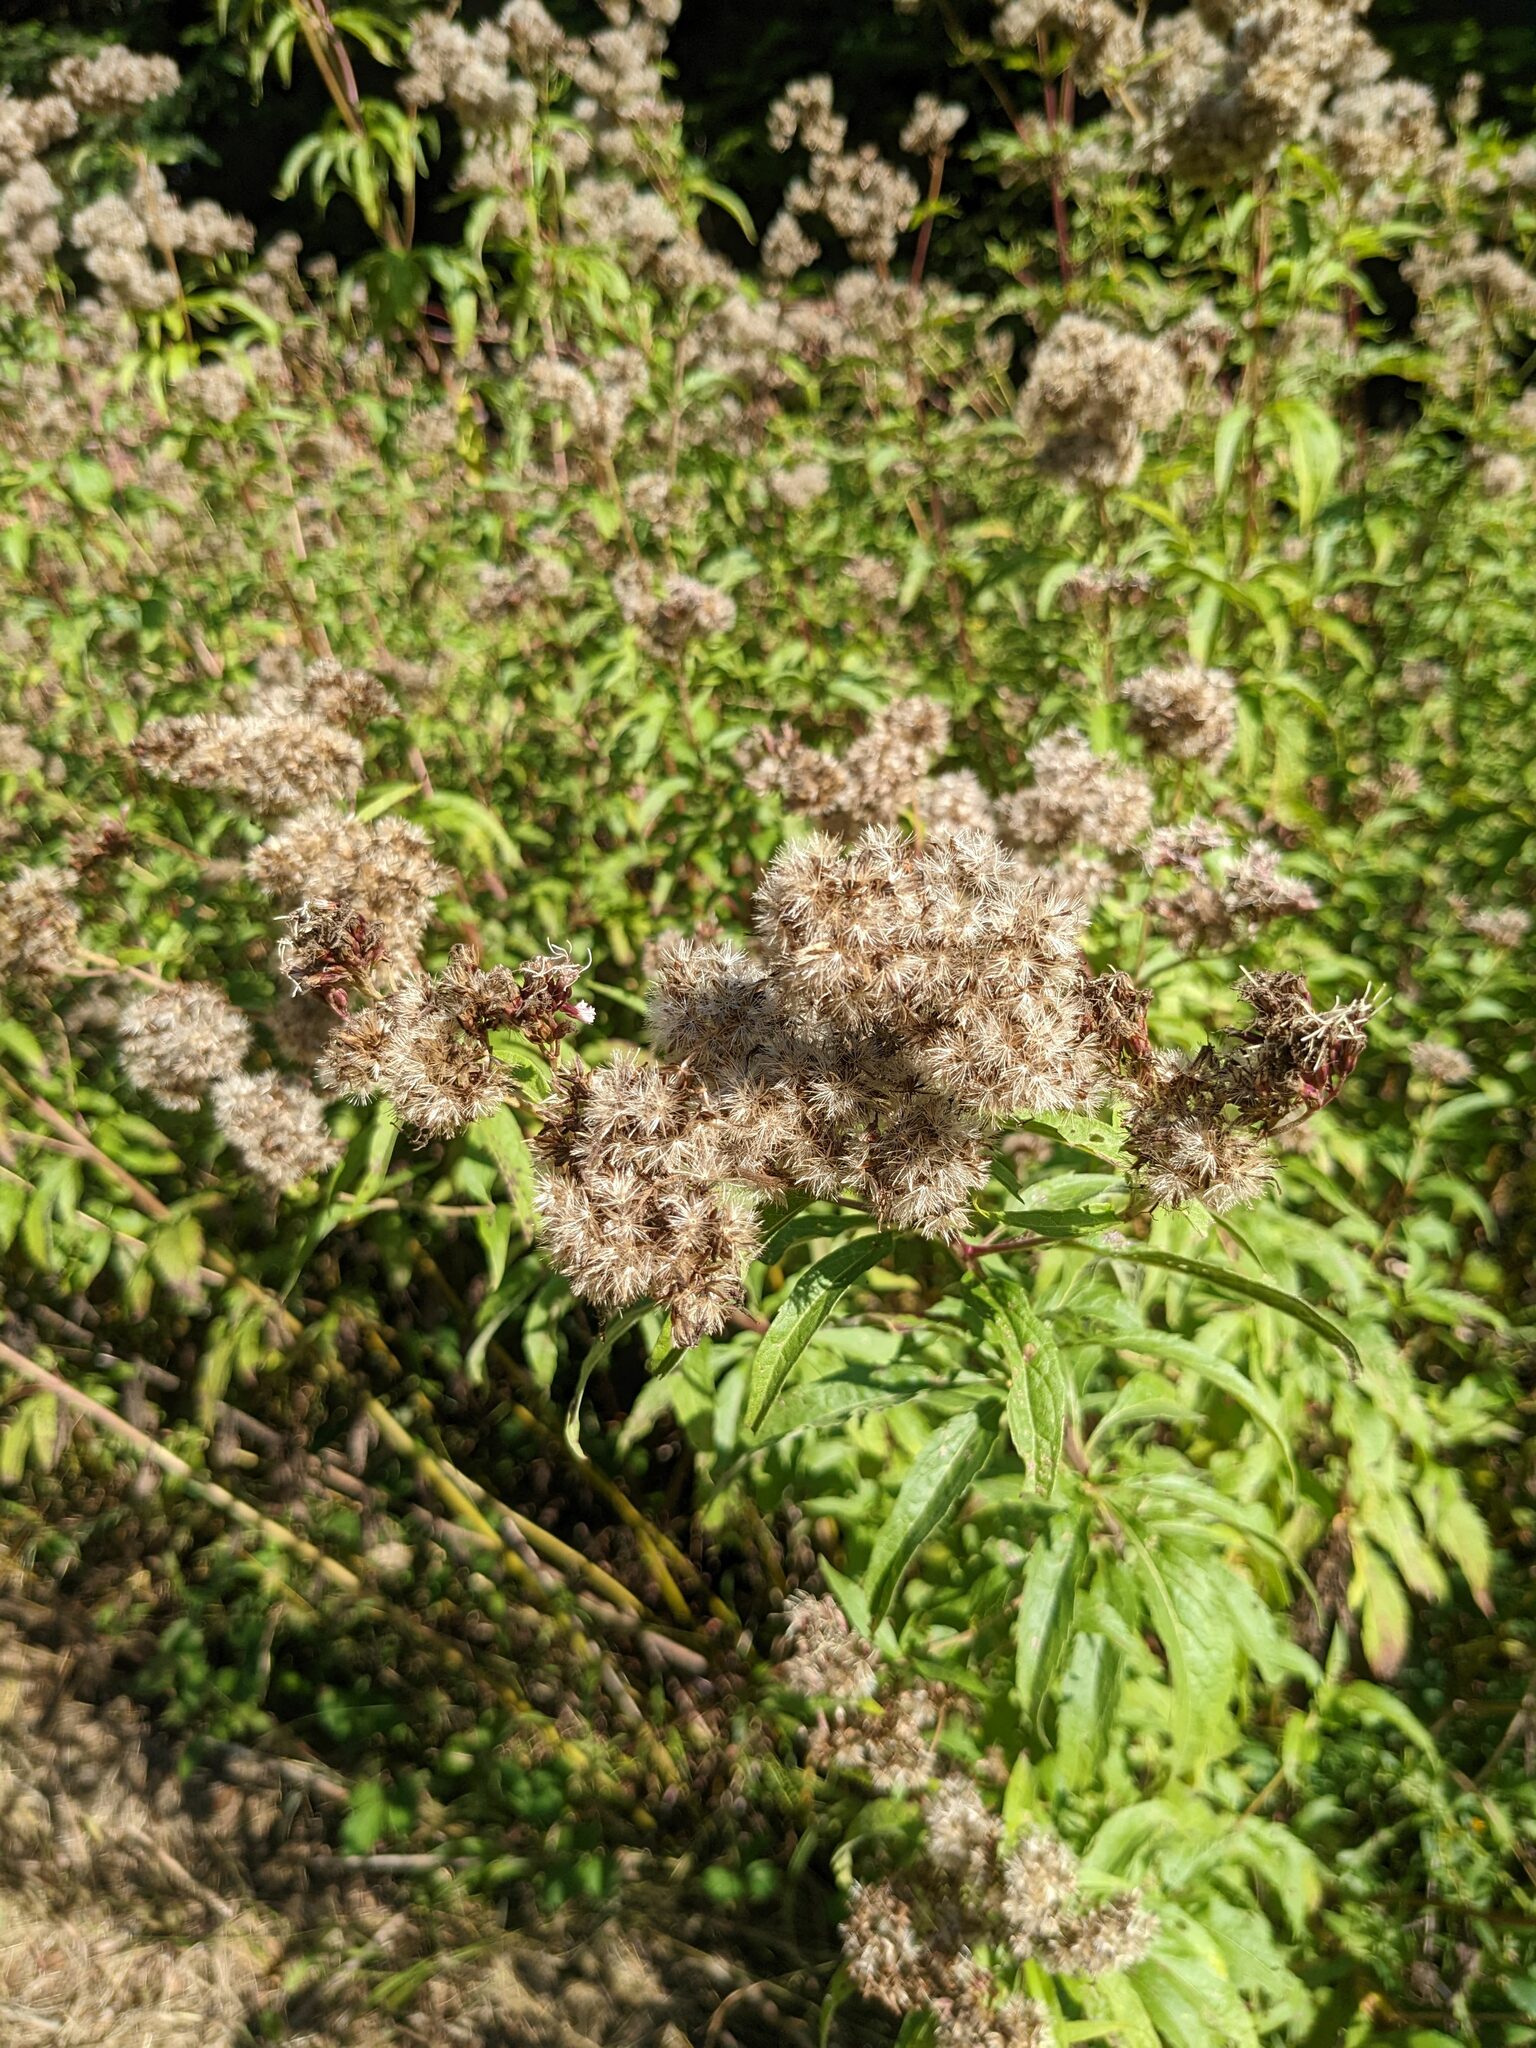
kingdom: Plantae
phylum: Tracheophyta
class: Magnoliopsida
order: Asterales
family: Asteraceae
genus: Eupatorium
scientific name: Eupatorium cannabinum
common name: Hemp-agrimony
